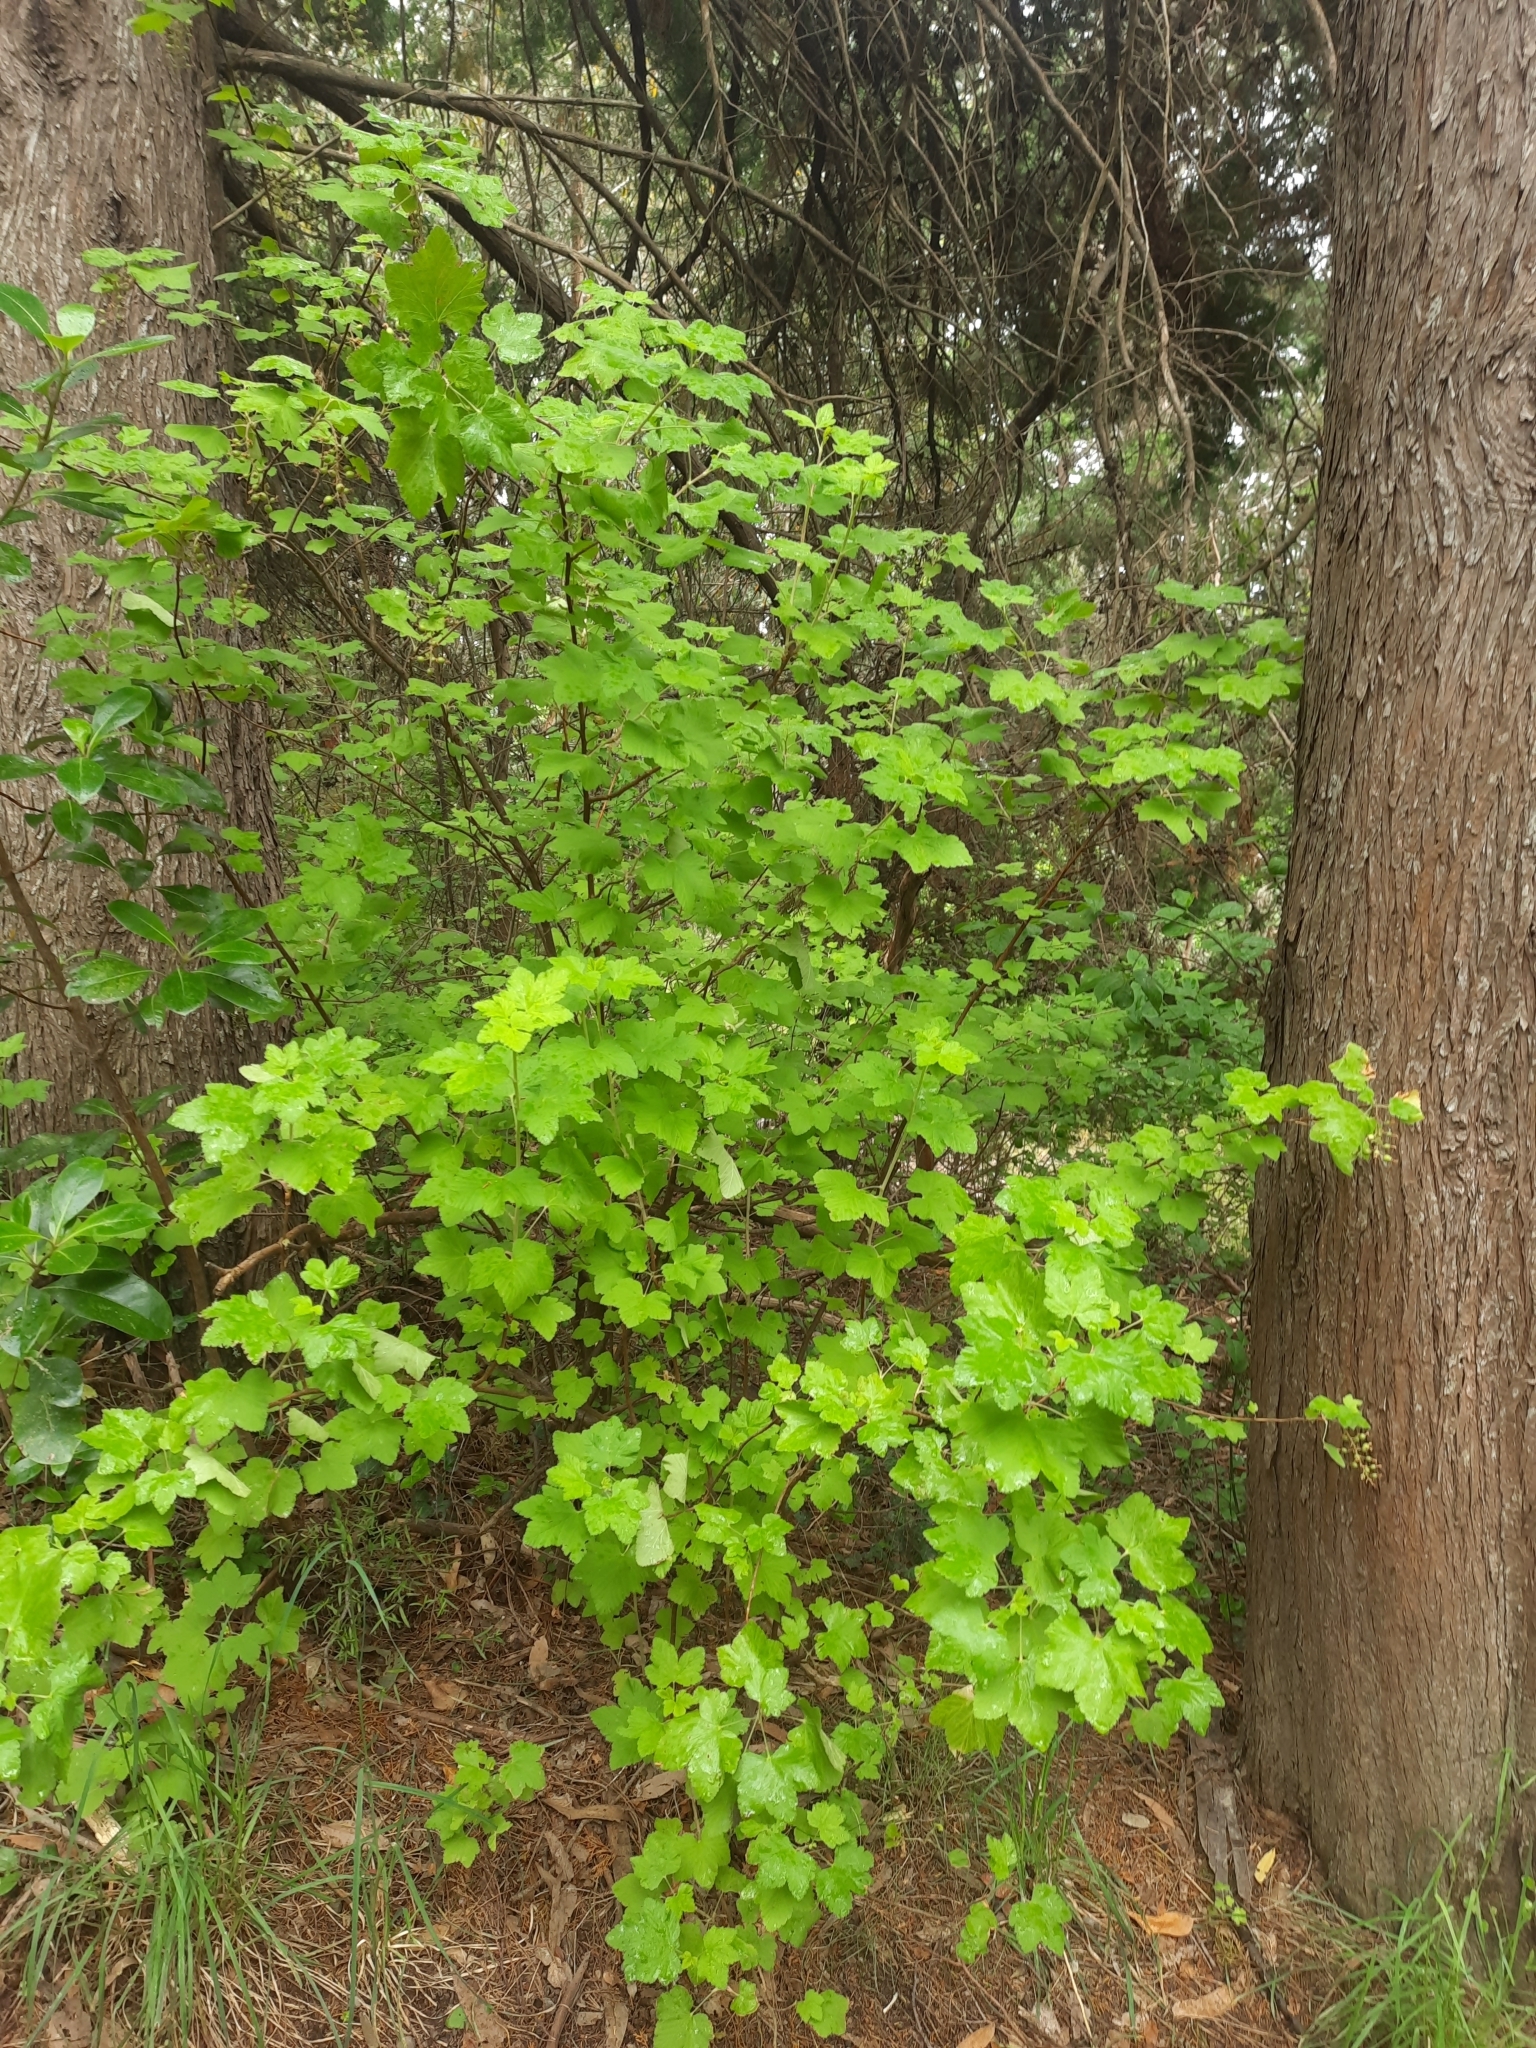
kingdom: Plantae
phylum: Tracheophyta
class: Magnoliopsida
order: Saxifragales
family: Grossulariaceae
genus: Ribes
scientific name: Ribes sanguineum
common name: Flowering currant
